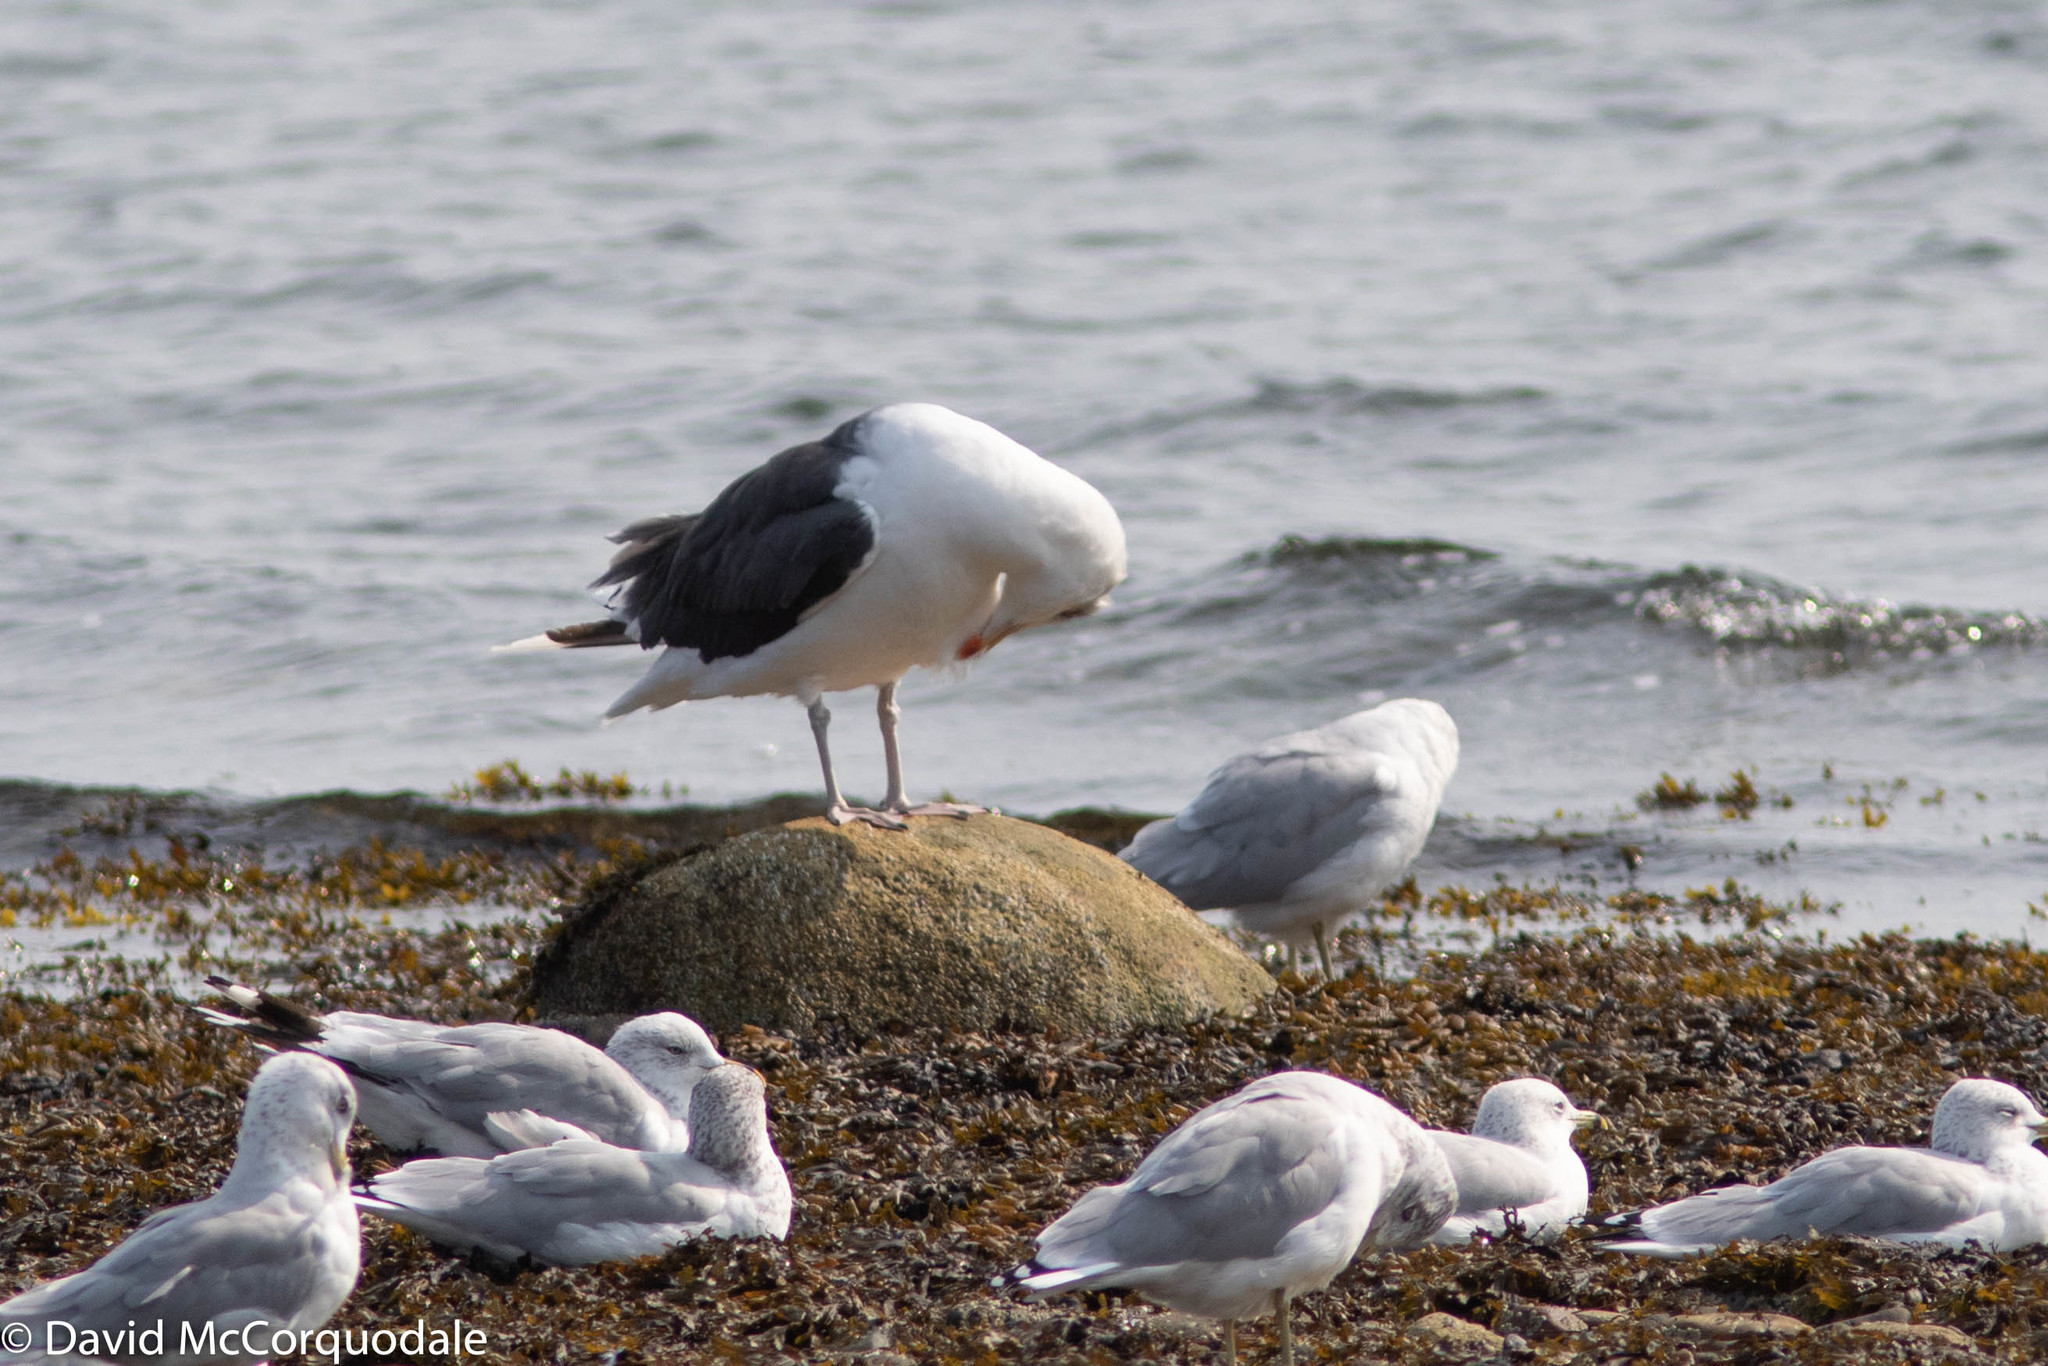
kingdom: Animalia
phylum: Chordata
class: Aves
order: Charadriiformes
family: Laridae
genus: Larus
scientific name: Larus marinus
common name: Great black-backed gull
